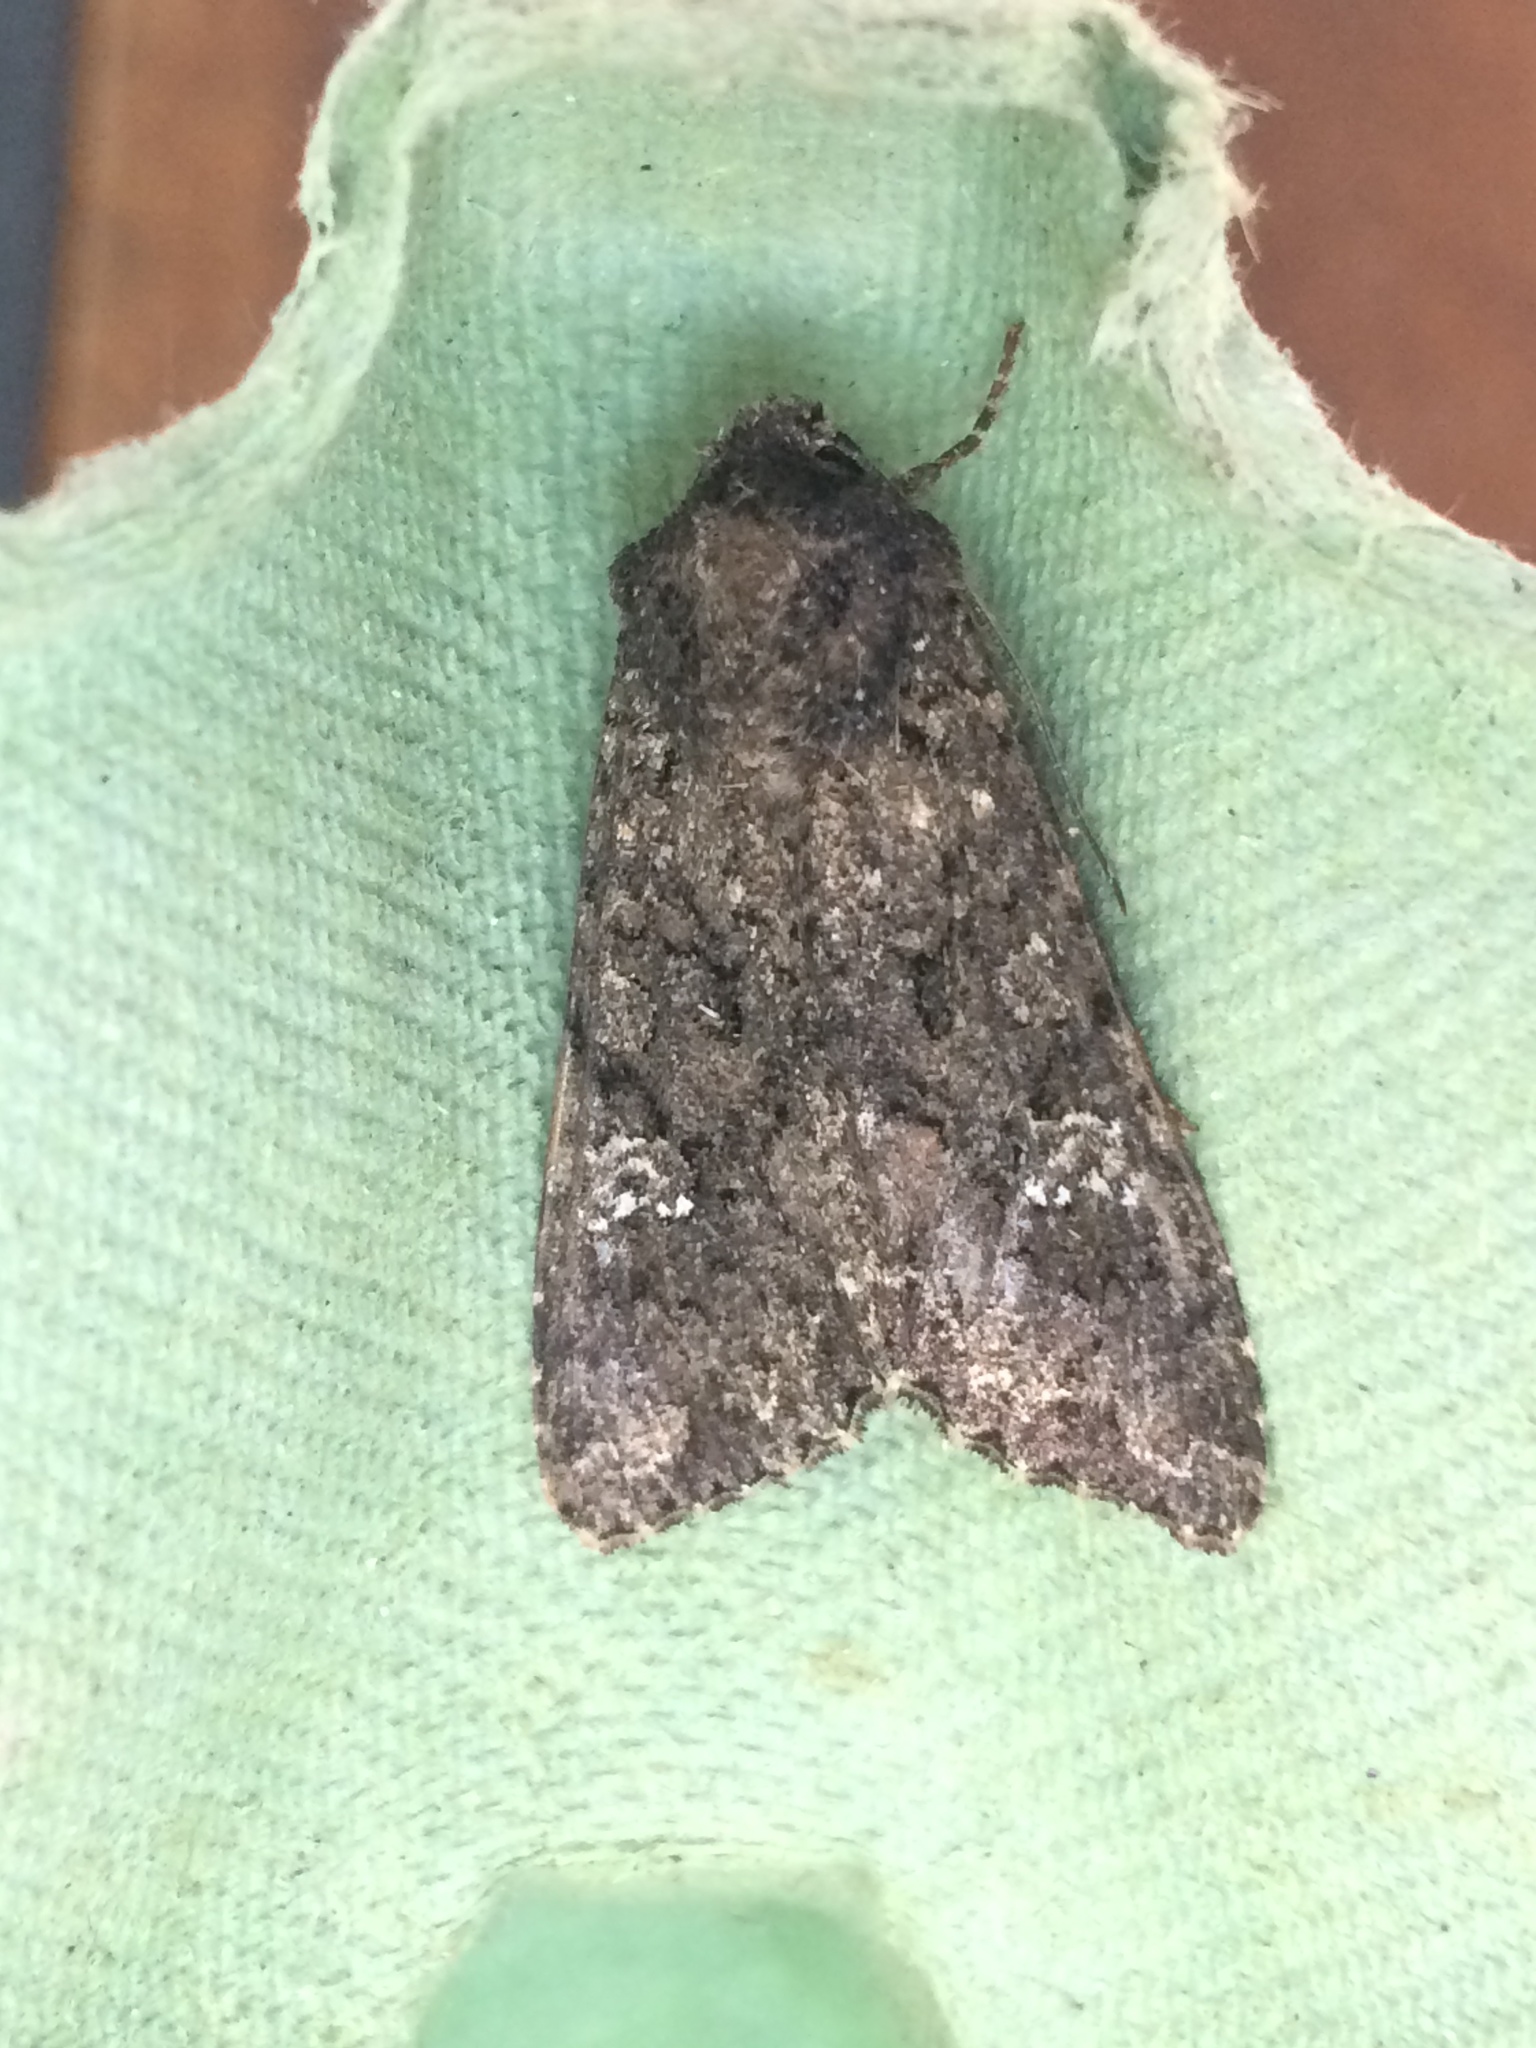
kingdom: Animalia
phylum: Arthropoda
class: Insecta
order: Lepidoptera
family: Noctuidae
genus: Mamestra
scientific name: Mamestra brassicae
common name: Cabbage moth
